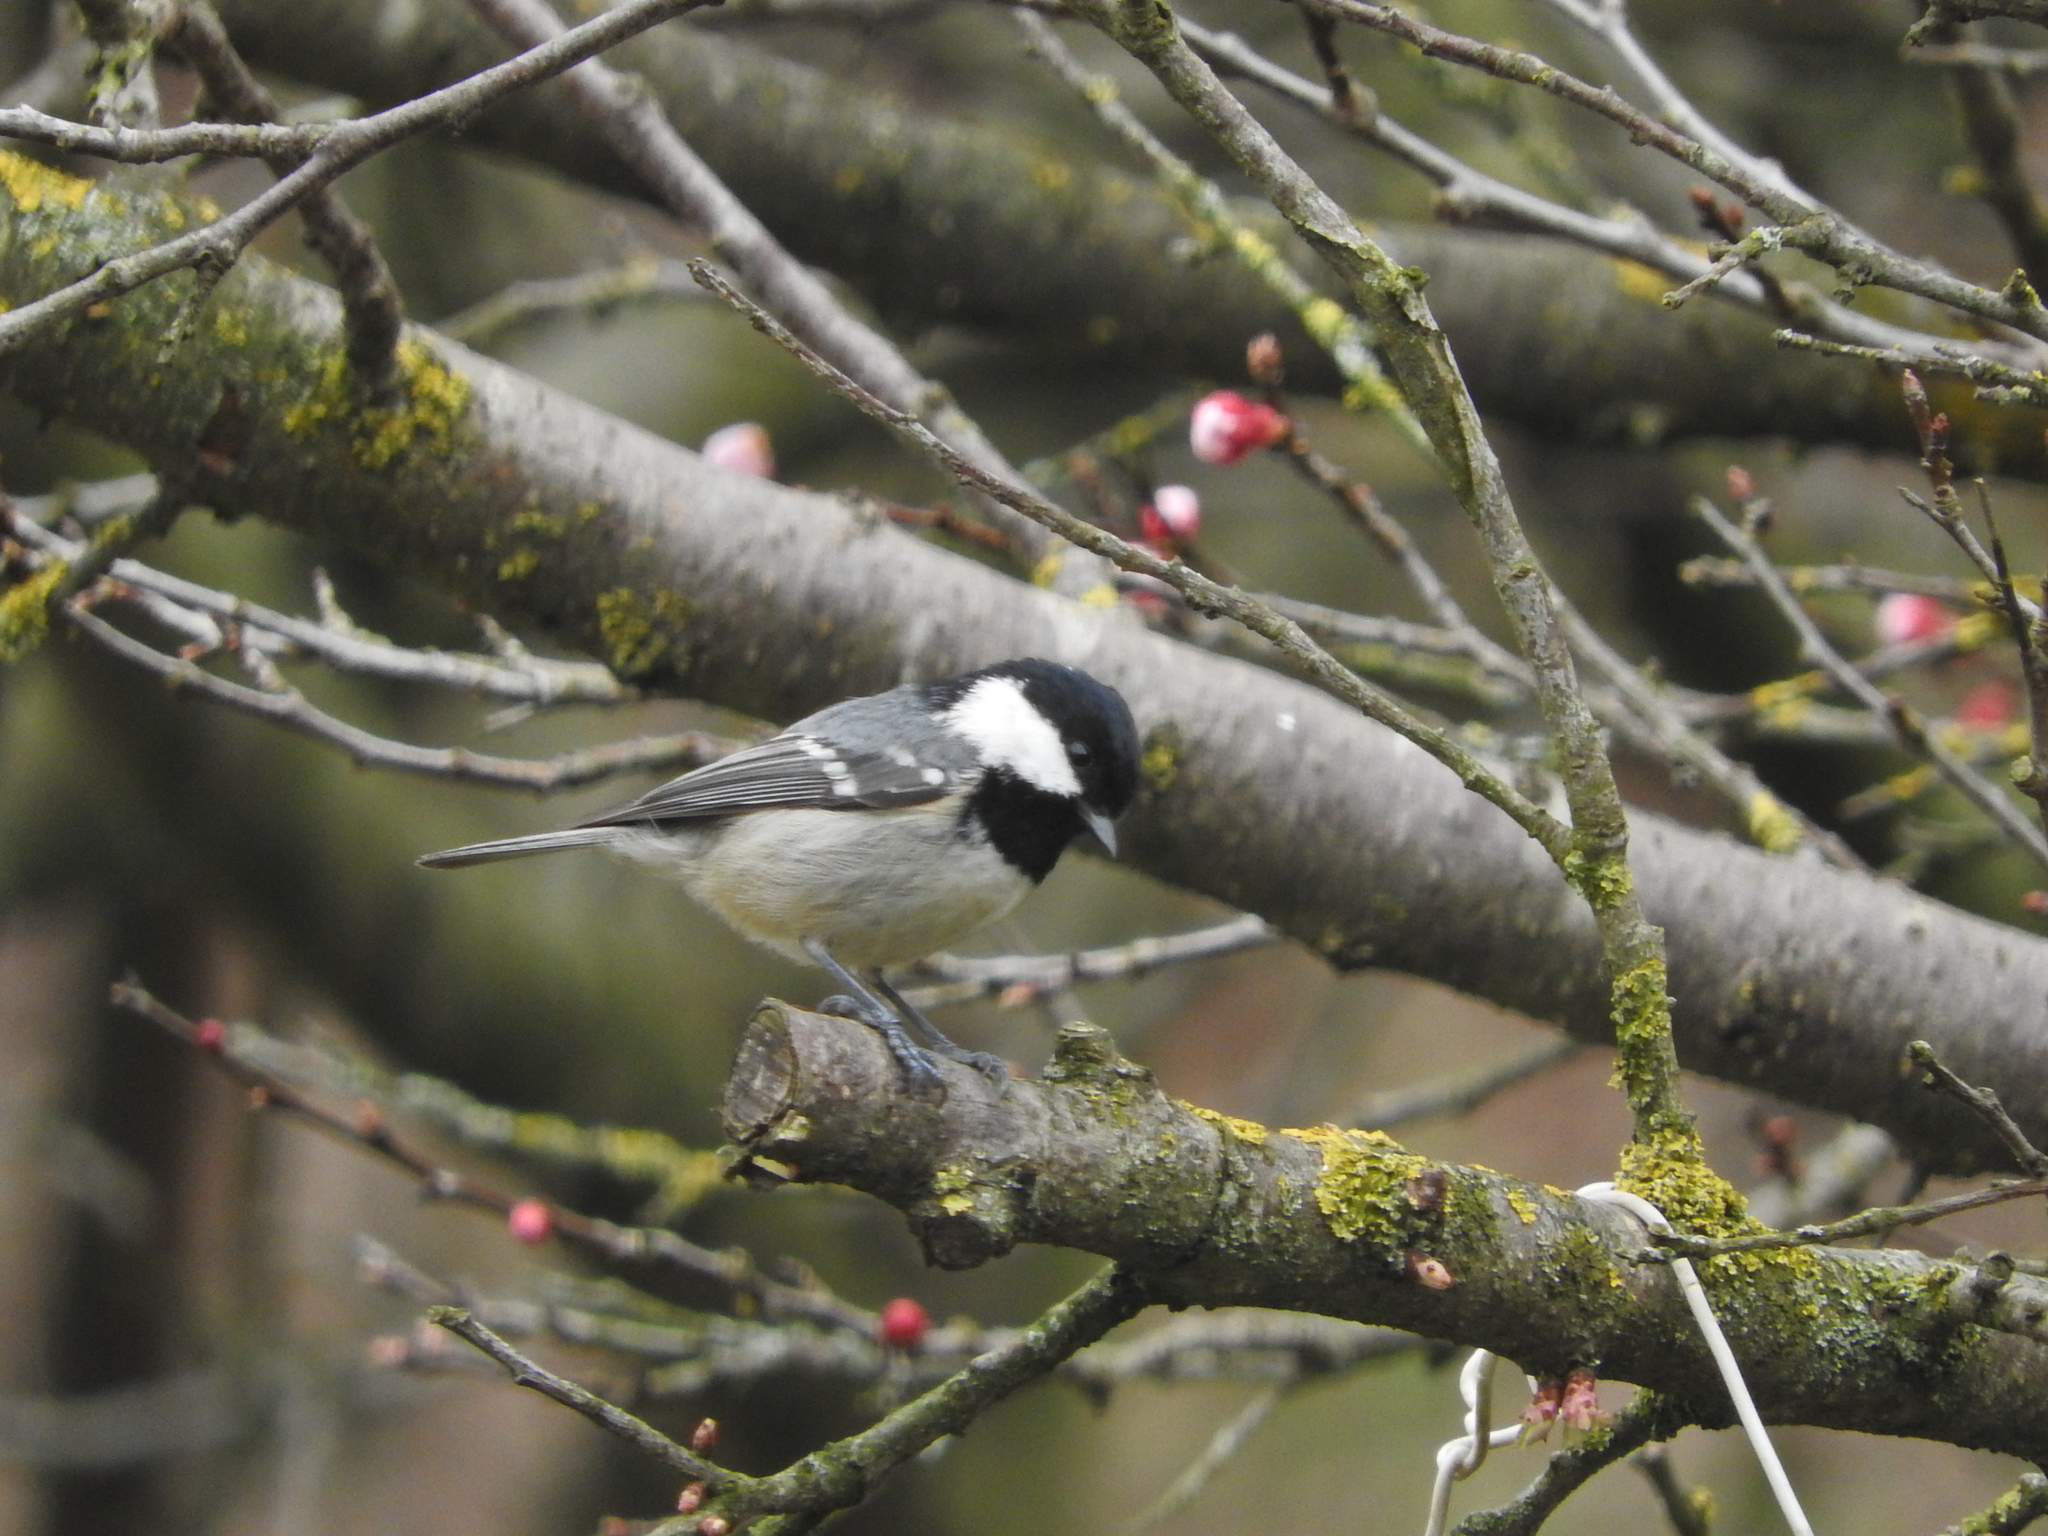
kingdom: Animalia
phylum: Chordata
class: Aves
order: Passeriformes
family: Paridae
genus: Periparus
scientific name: Periparus ater
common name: Coal tit
